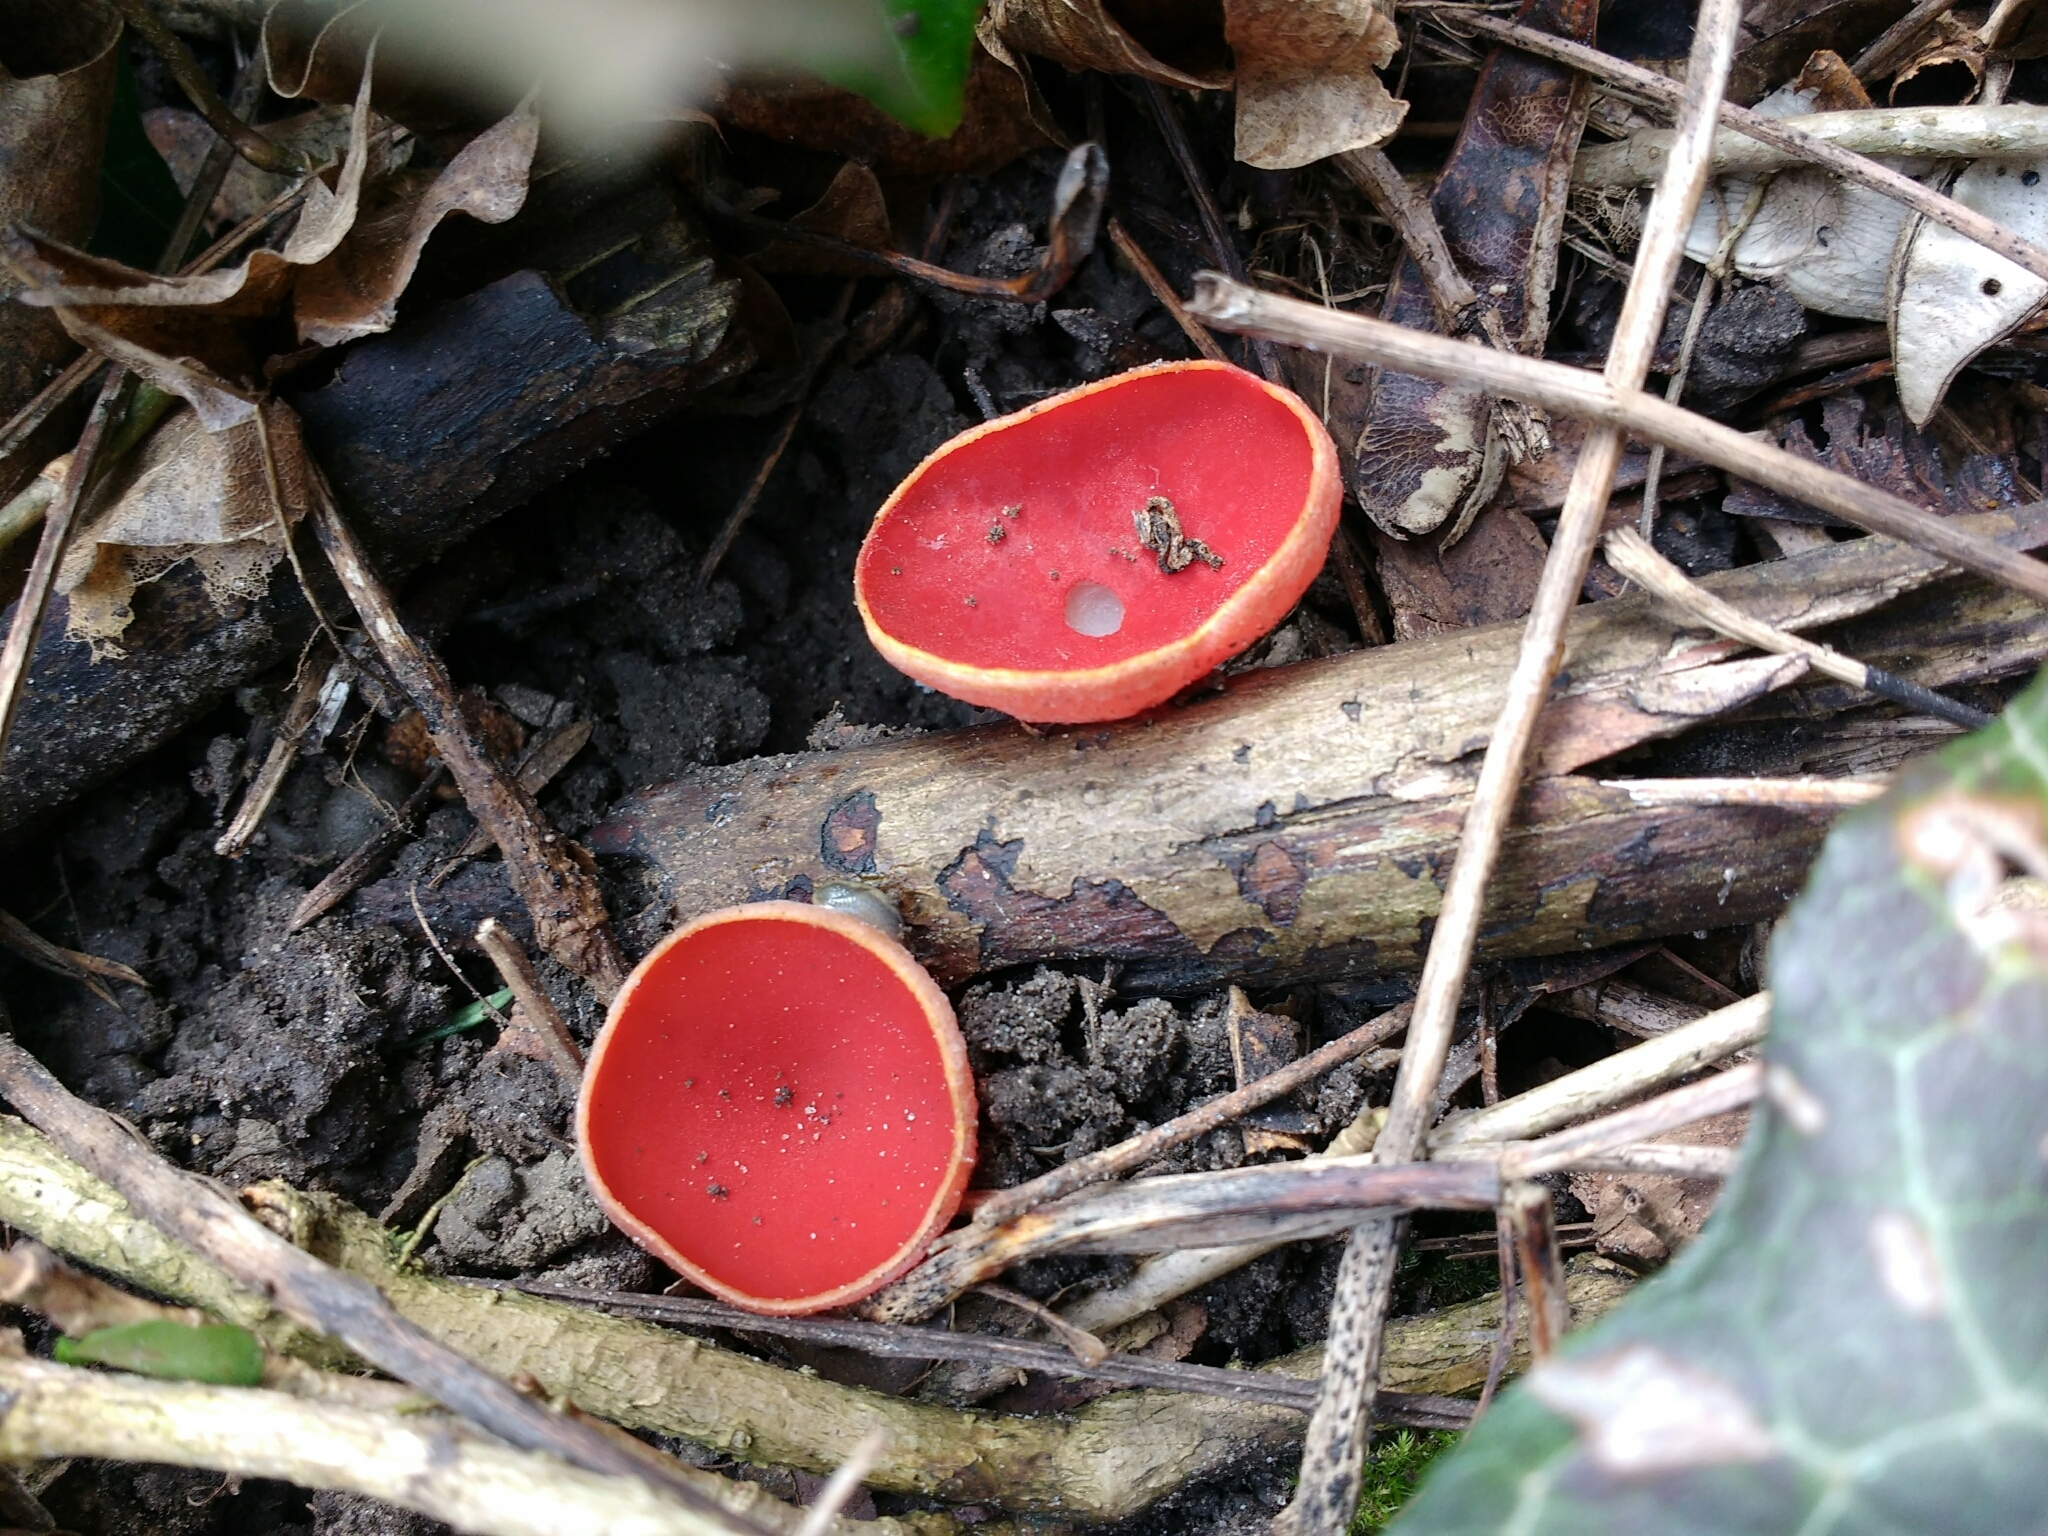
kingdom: Fungi
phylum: Ascomycota
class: Pezizomycetes
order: Pezizales
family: Sarcoscyphaceae
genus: Sarcoscypha
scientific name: Sarcoscypha
